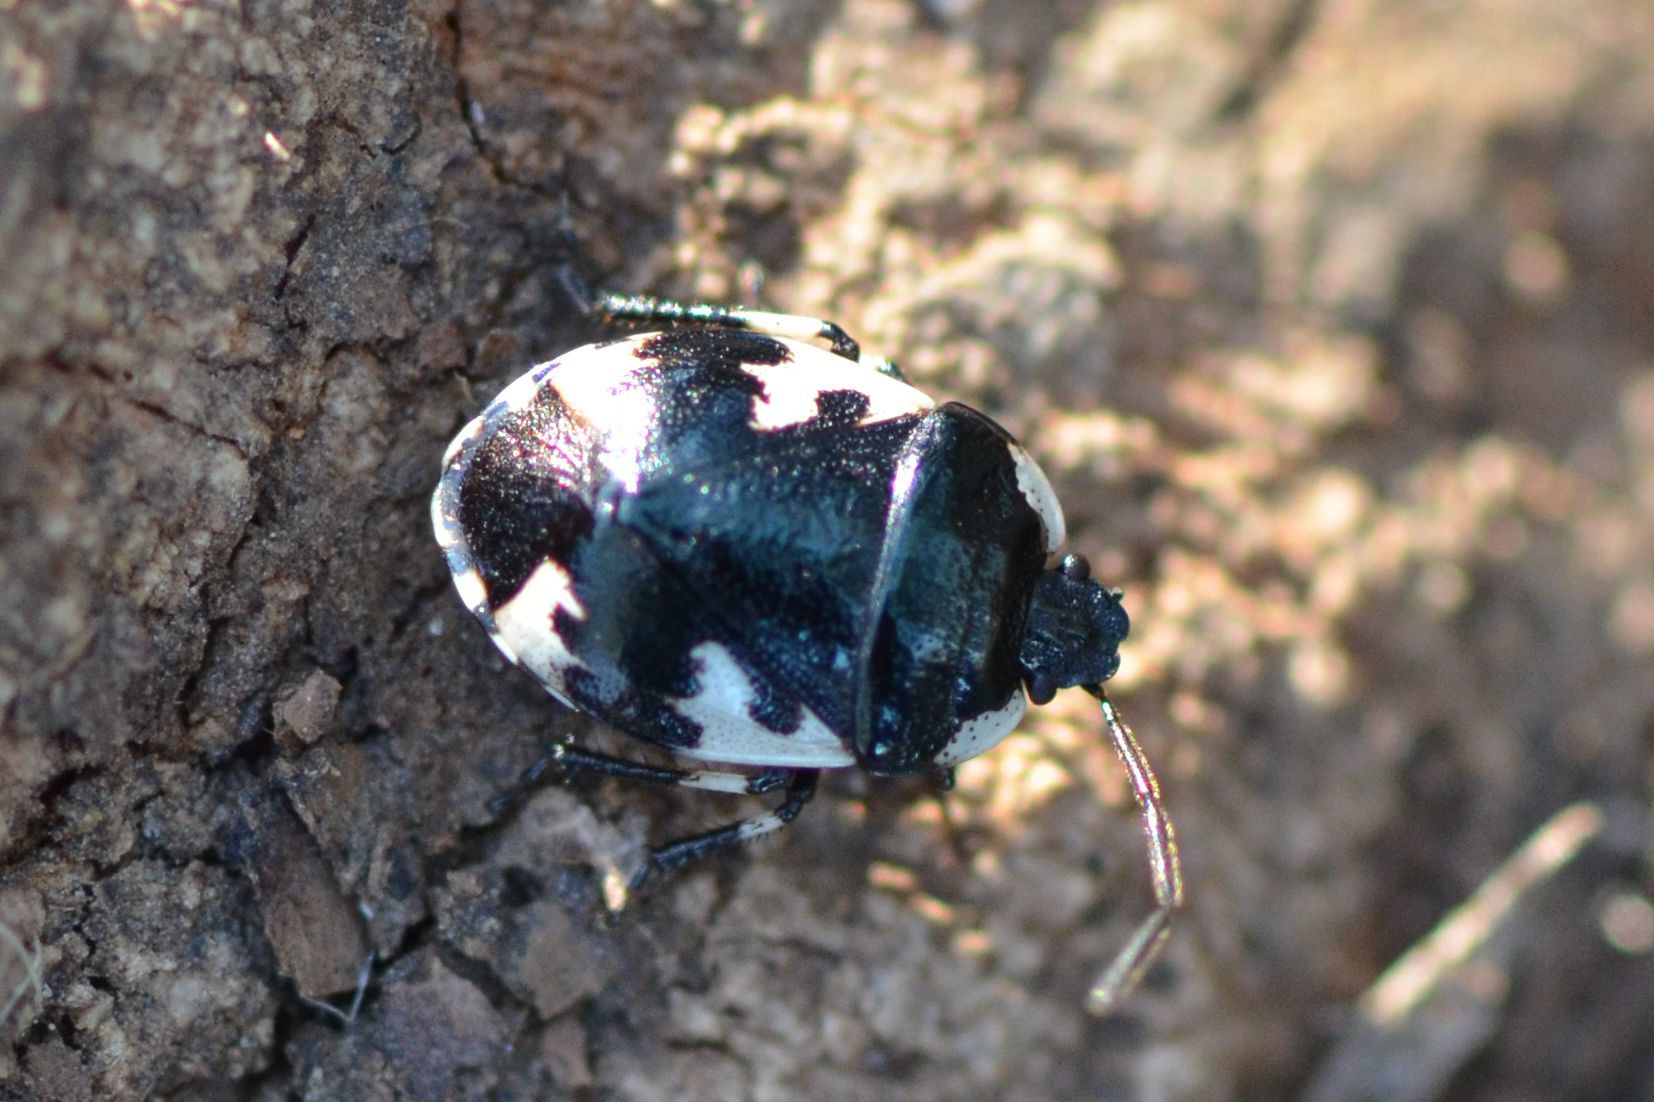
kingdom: Animalia
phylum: Arthropoda
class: Insecta
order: Hemiptera
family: Cydnidae
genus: Tritomegas
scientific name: Tritomegas rotundipennis
